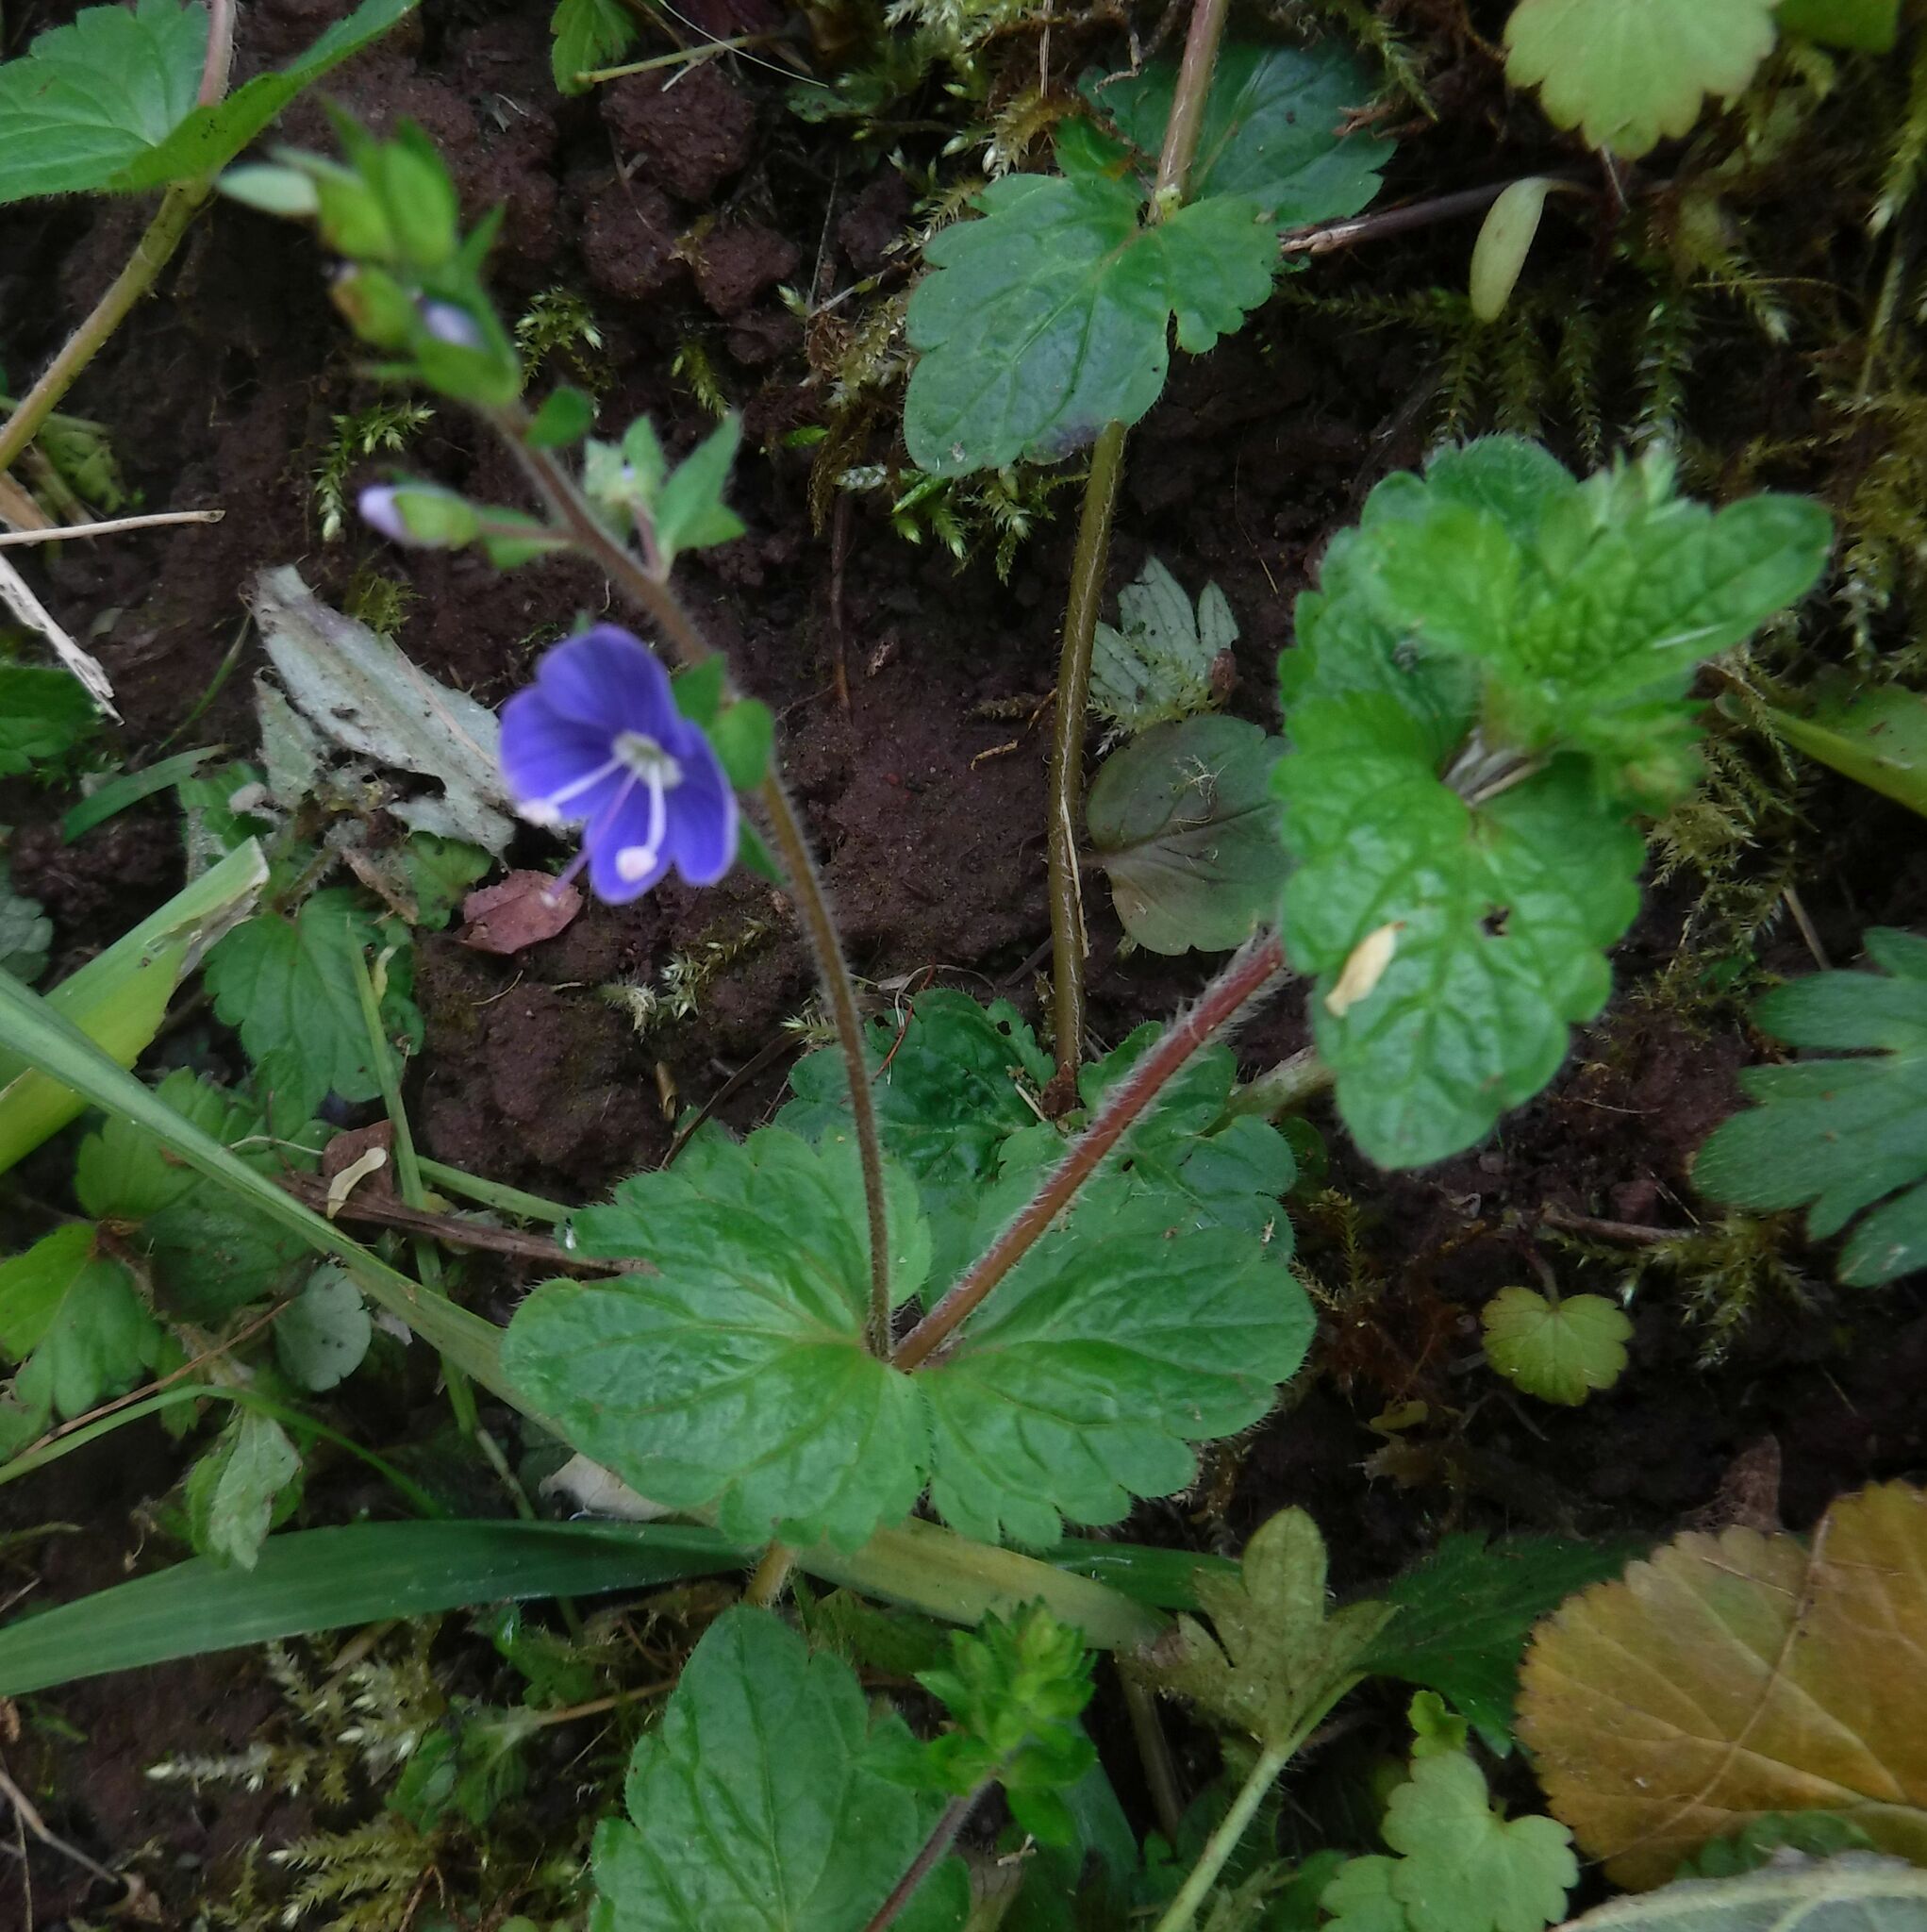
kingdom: Plantae
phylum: Tracheophyta
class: Magnoliopsida
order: Lamiales
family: Plantaginaceae
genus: Veronica
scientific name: Veronica chamaedrys
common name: Germander speedwell
